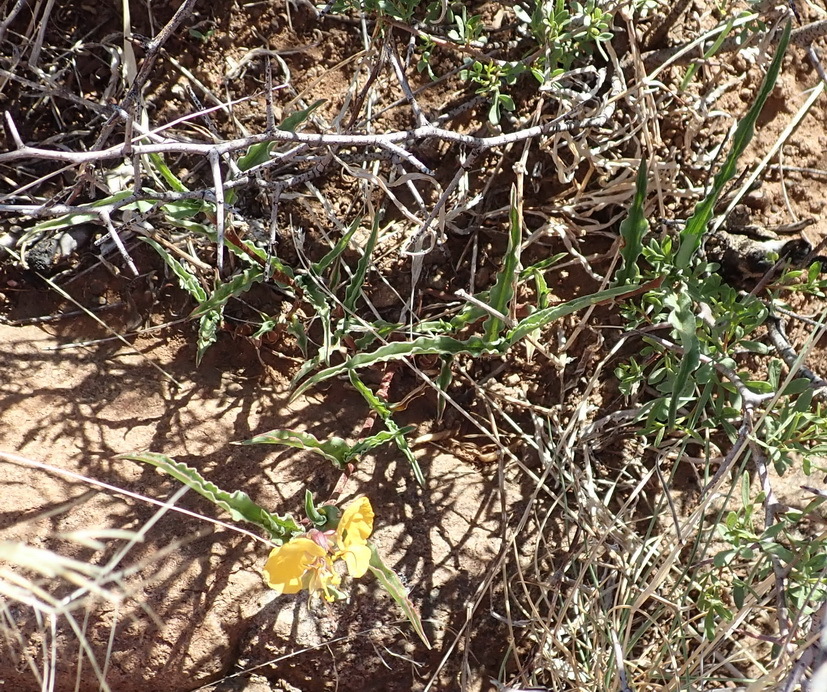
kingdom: Plantae
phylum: Tracheophyta
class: Liliopsida
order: Commelinales
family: Commelinaceae
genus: Commelina
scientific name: Commelina africana
